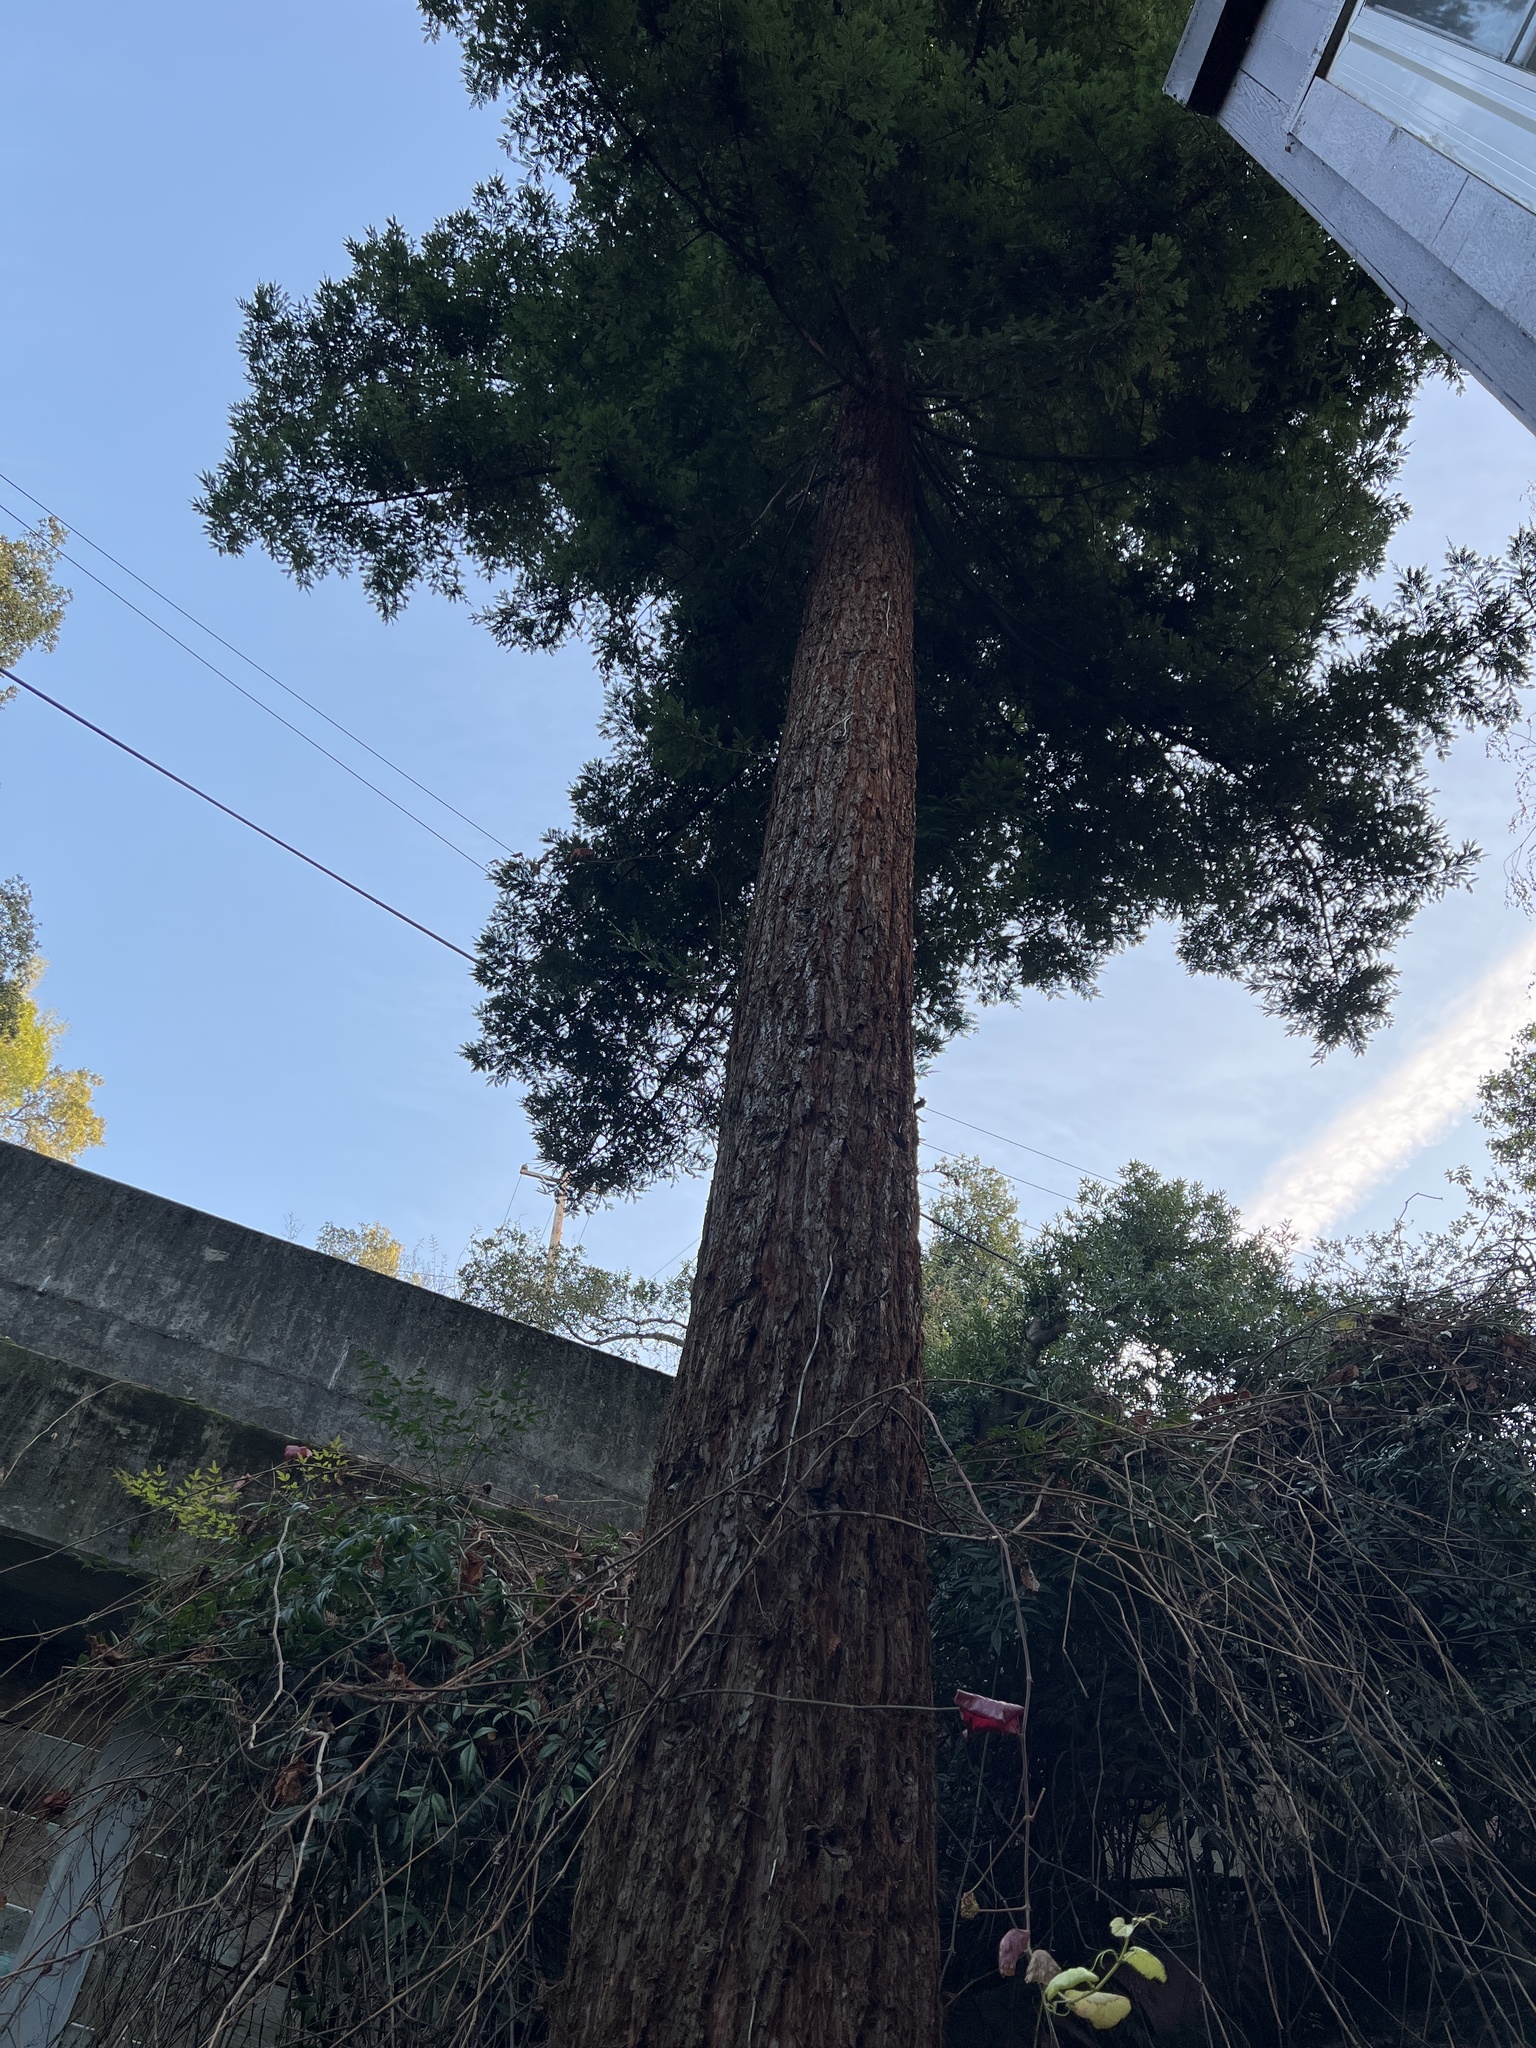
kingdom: Plantae
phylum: Tracheophyta
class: Pinopsida
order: Pinales
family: Cupressaceae
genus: Sequoia
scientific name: Sequoia sempervirens
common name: Coast redwood
